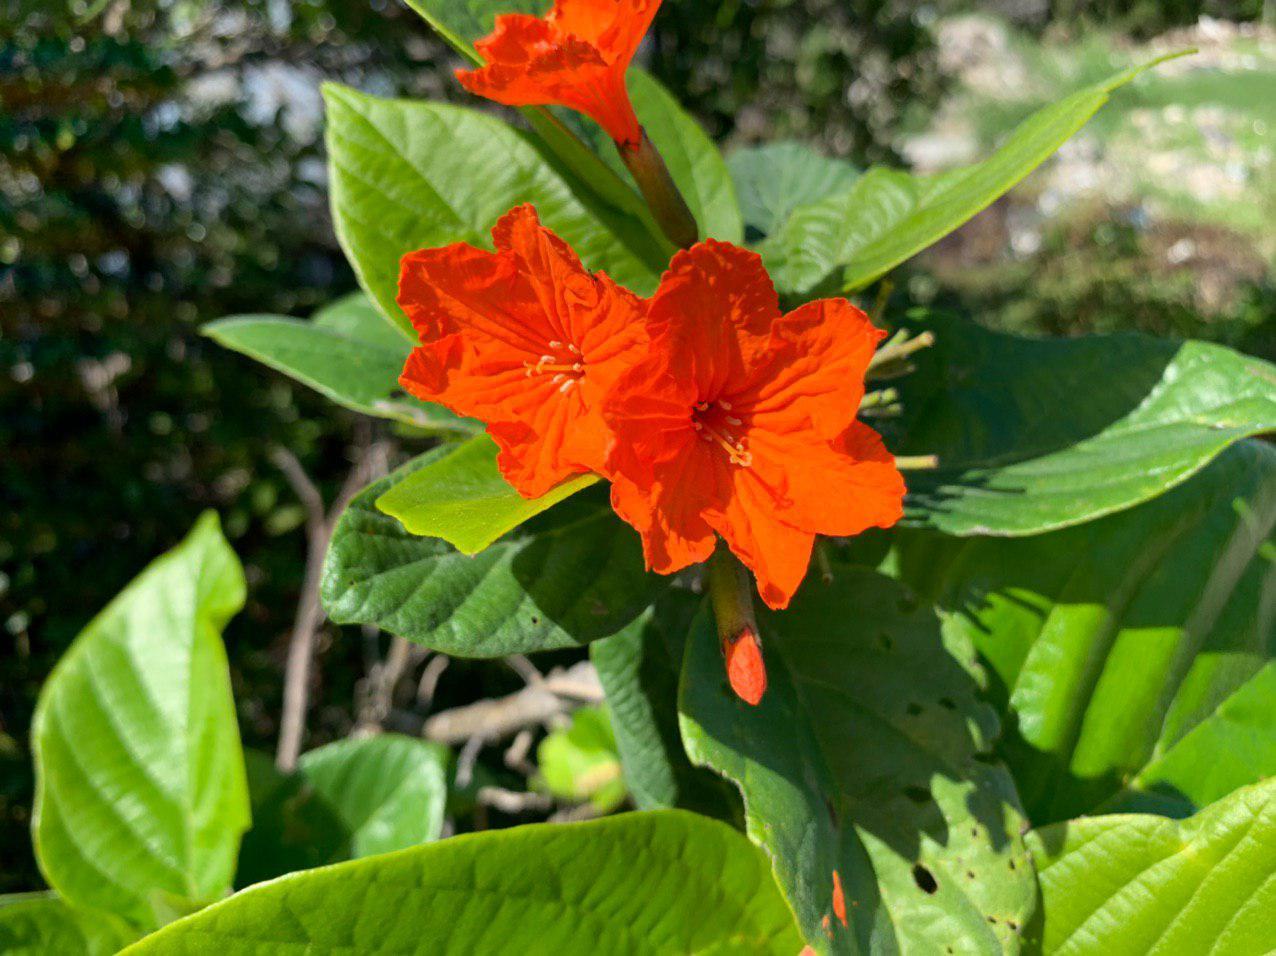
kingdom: Plantae
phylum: Tracheophyta
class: Magnoliopsida
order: Boraginales
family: Cordiaceae
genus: Cordia
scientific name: Cordia sebestena
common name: Largeleaf geigertree
